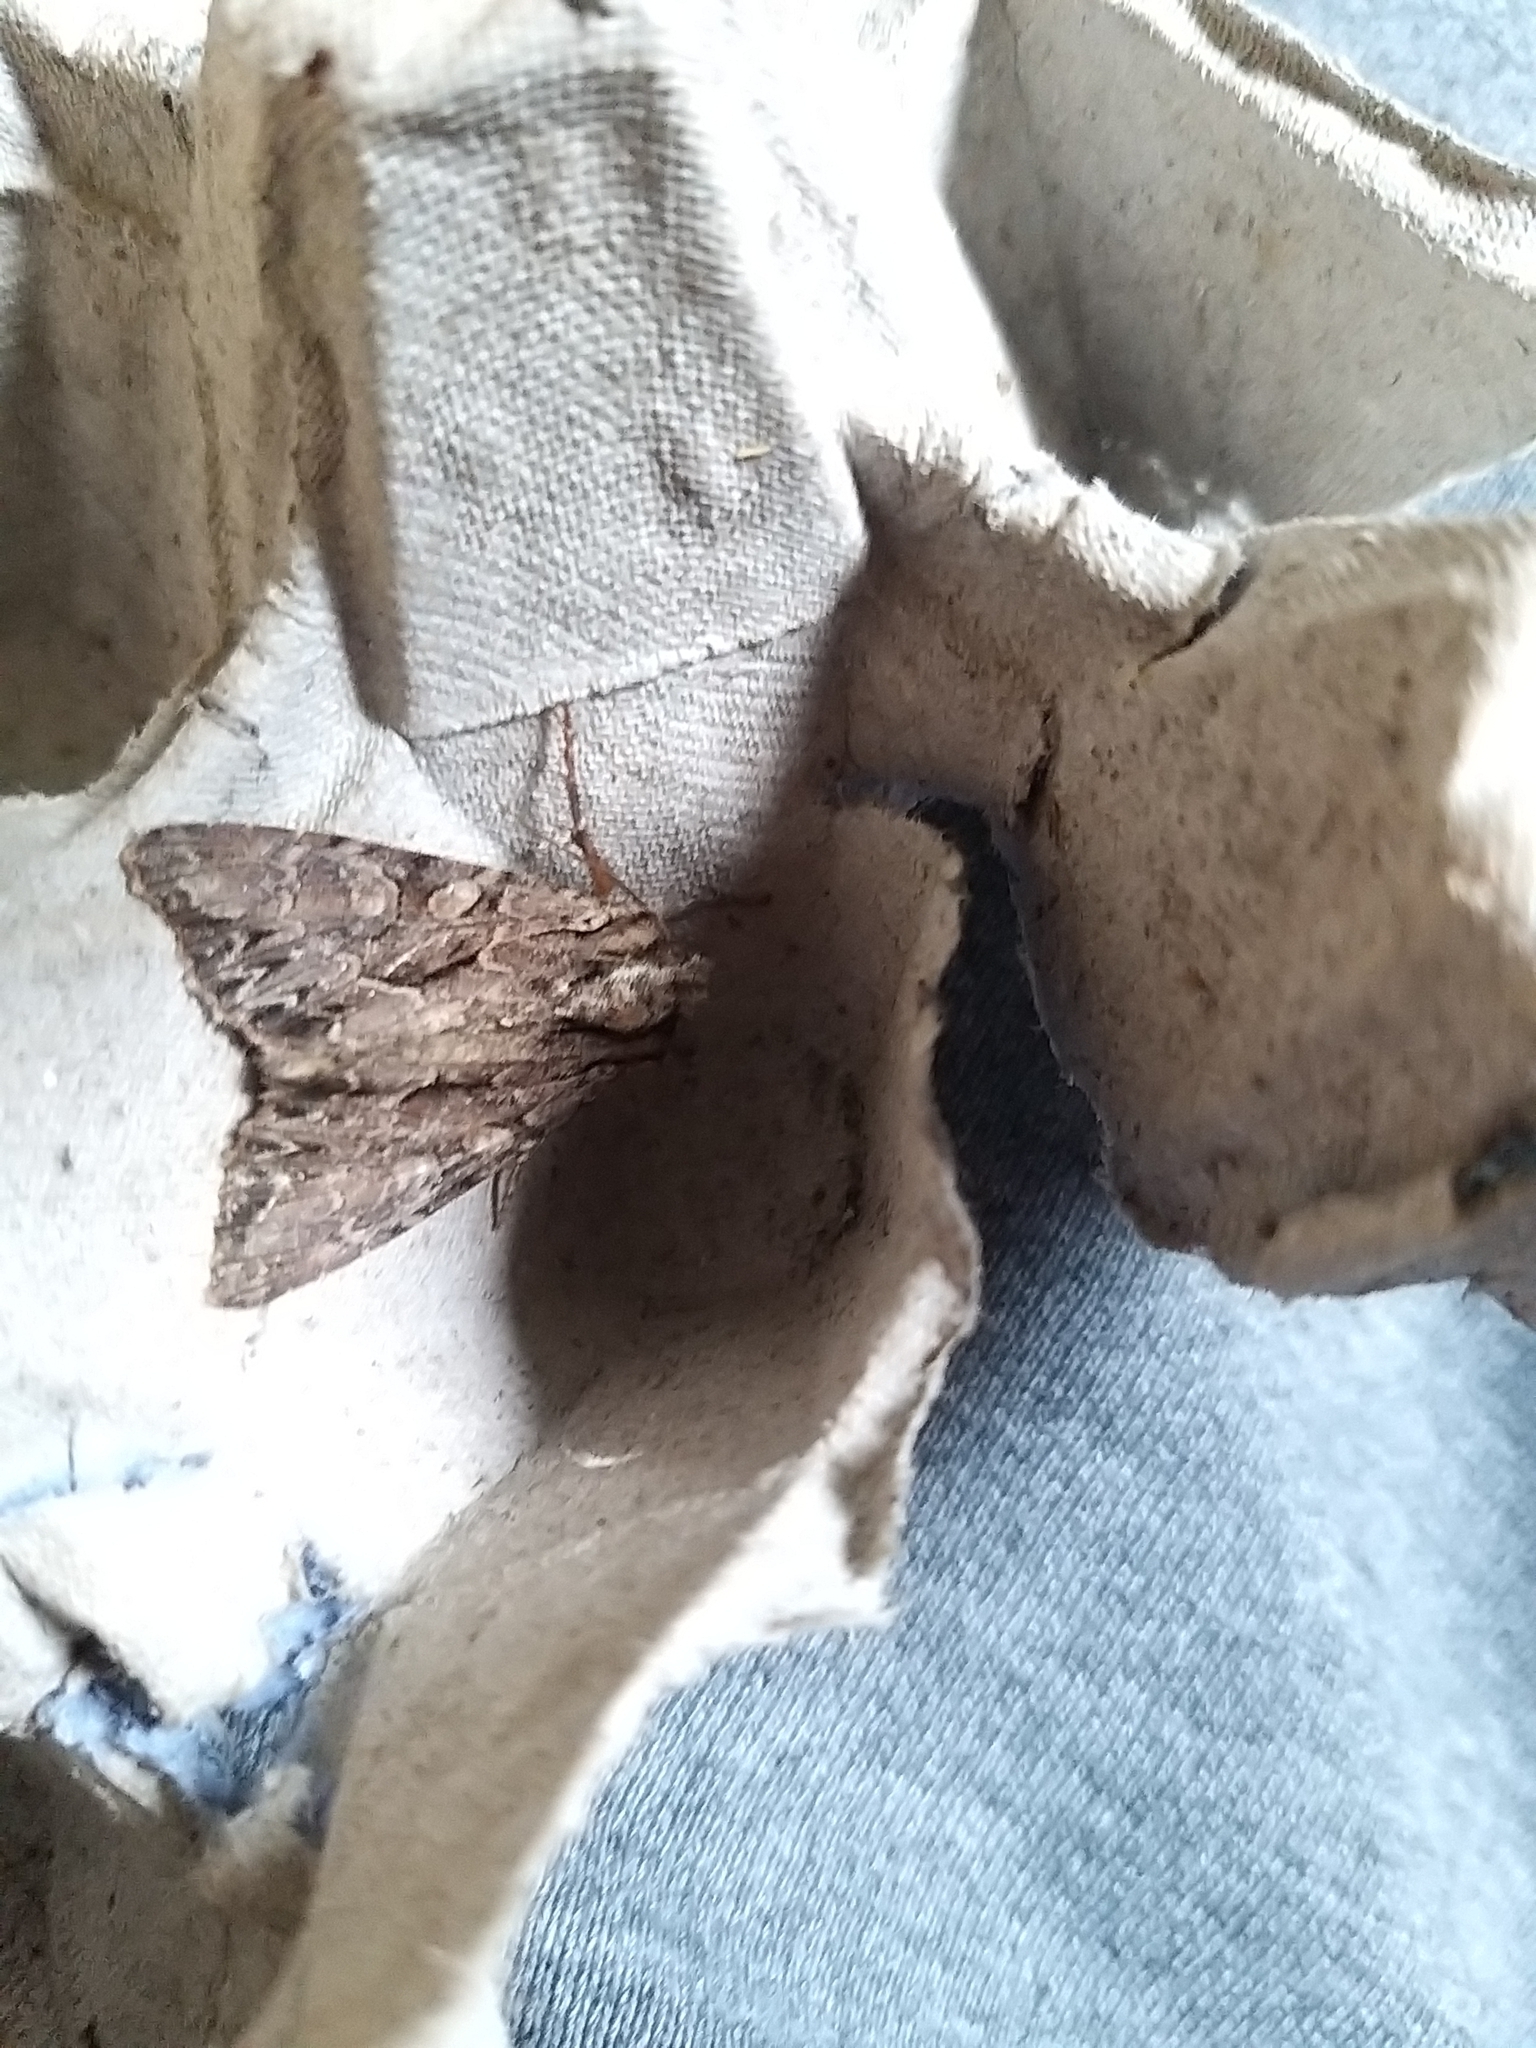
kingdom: Animalia
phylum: Arthropoda
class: Insecta
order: Lepidoptera
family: Noctuidae
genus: Apamea
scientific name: Apamea monoglypha
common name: Dark arches
